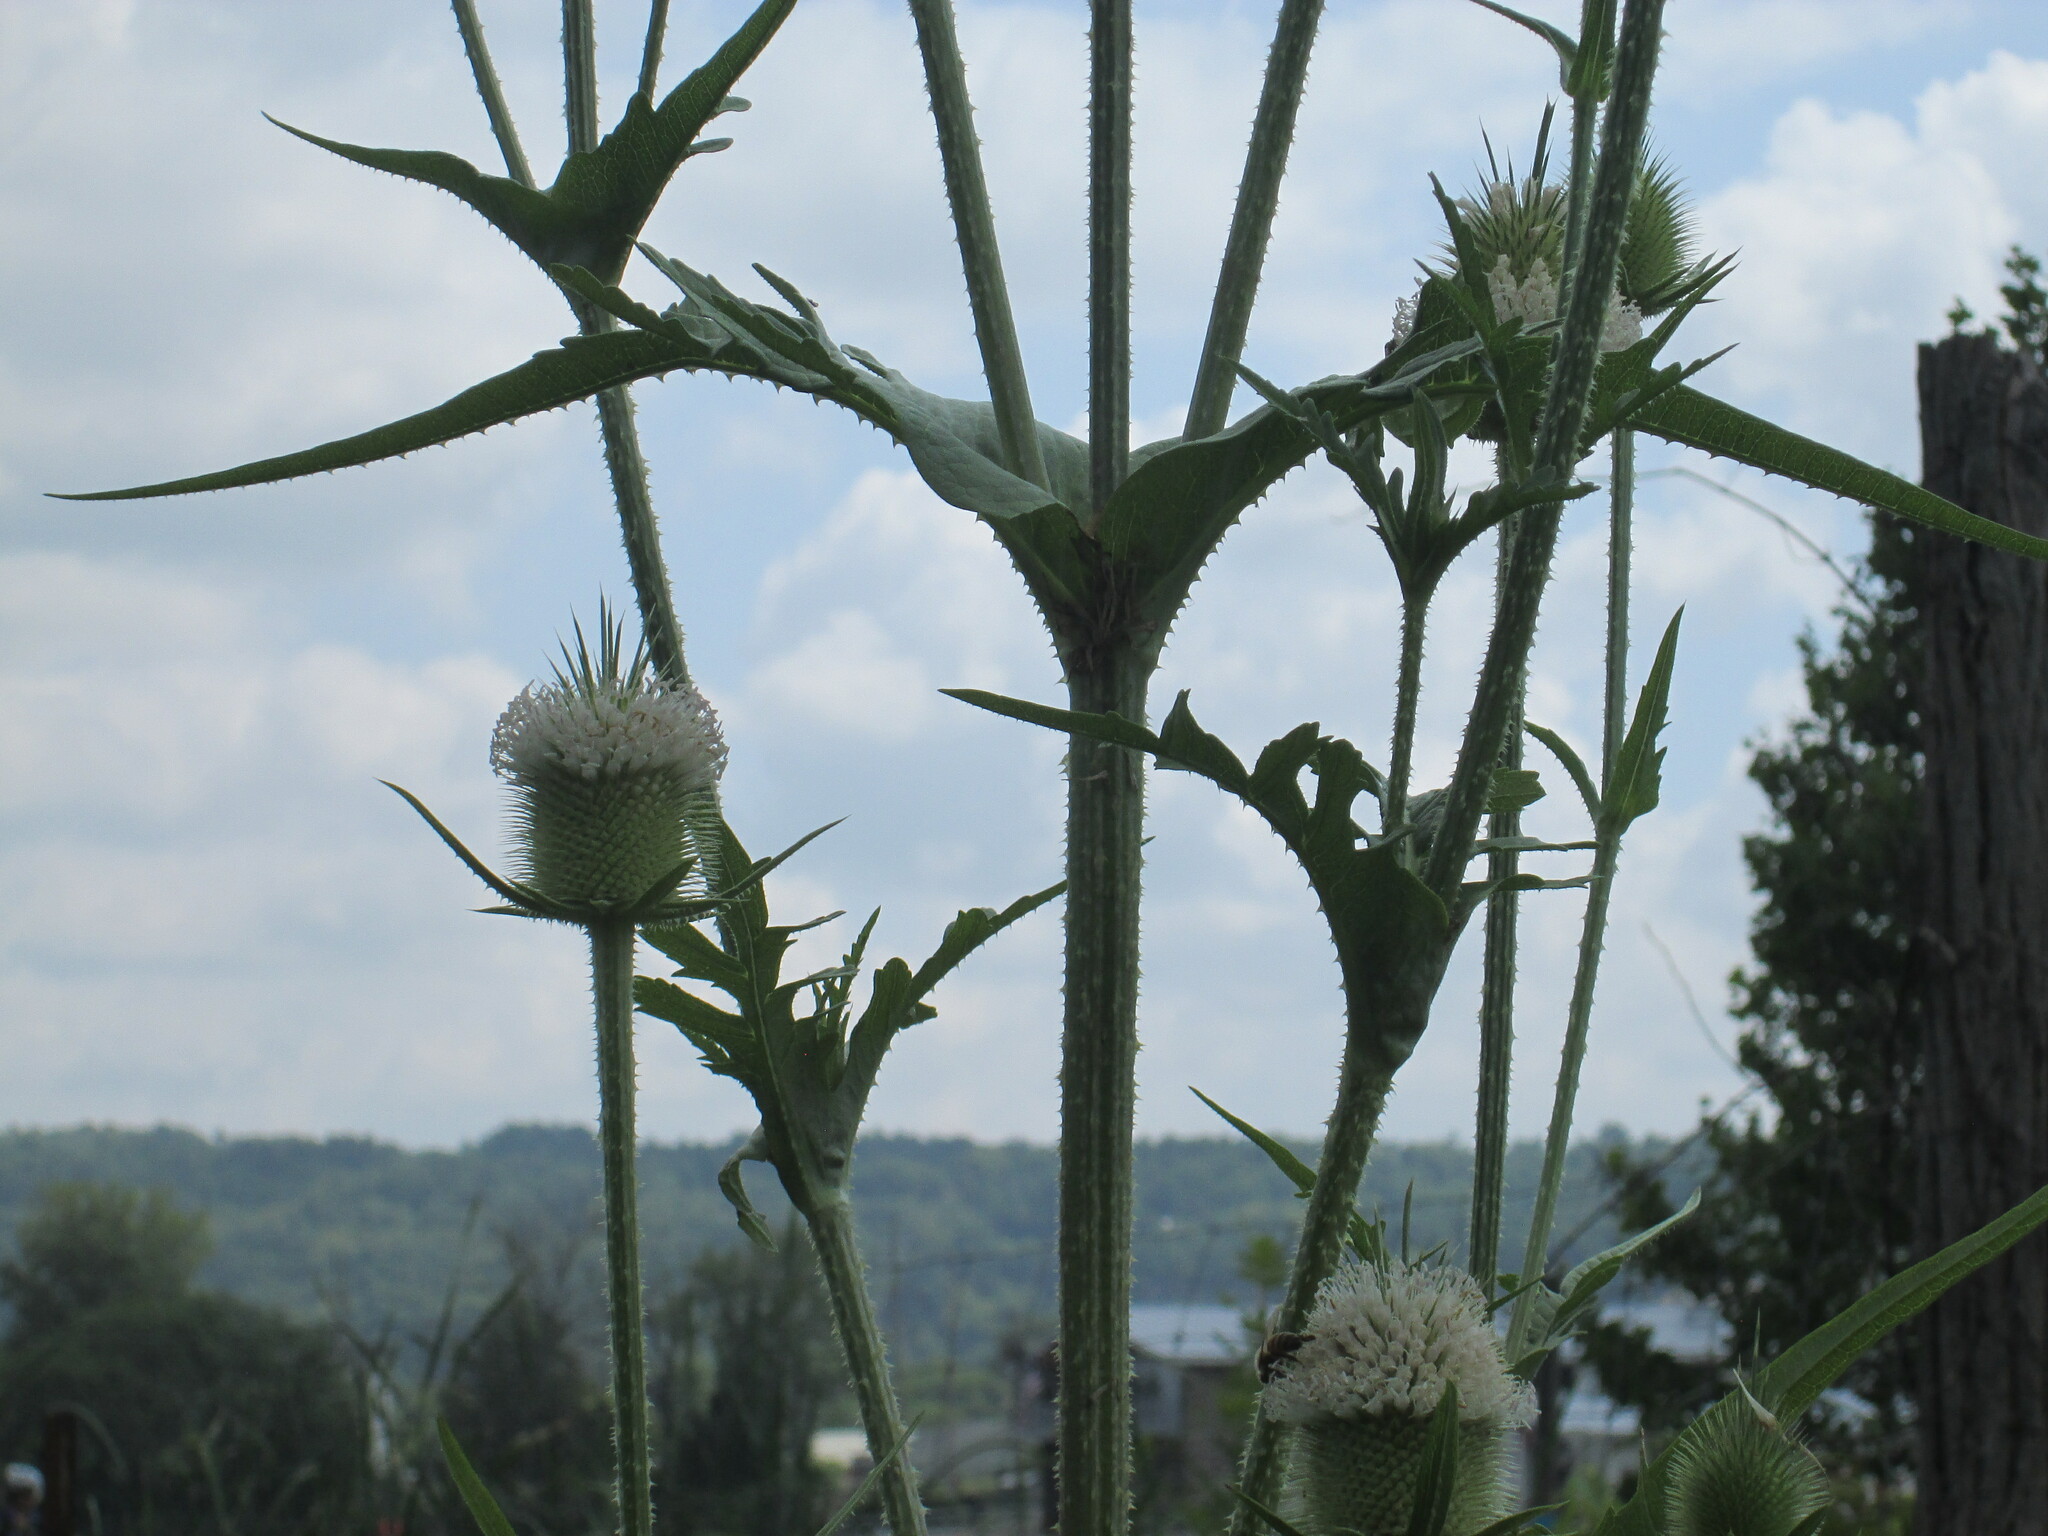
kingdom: Plantae
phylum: Tracheophyta
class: Magnoliopsida
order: Dipsacales
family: Caprifoliaceae
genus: Dipsacus
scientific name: Dipsacus laciniatus
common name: Cut-leaved teasel
